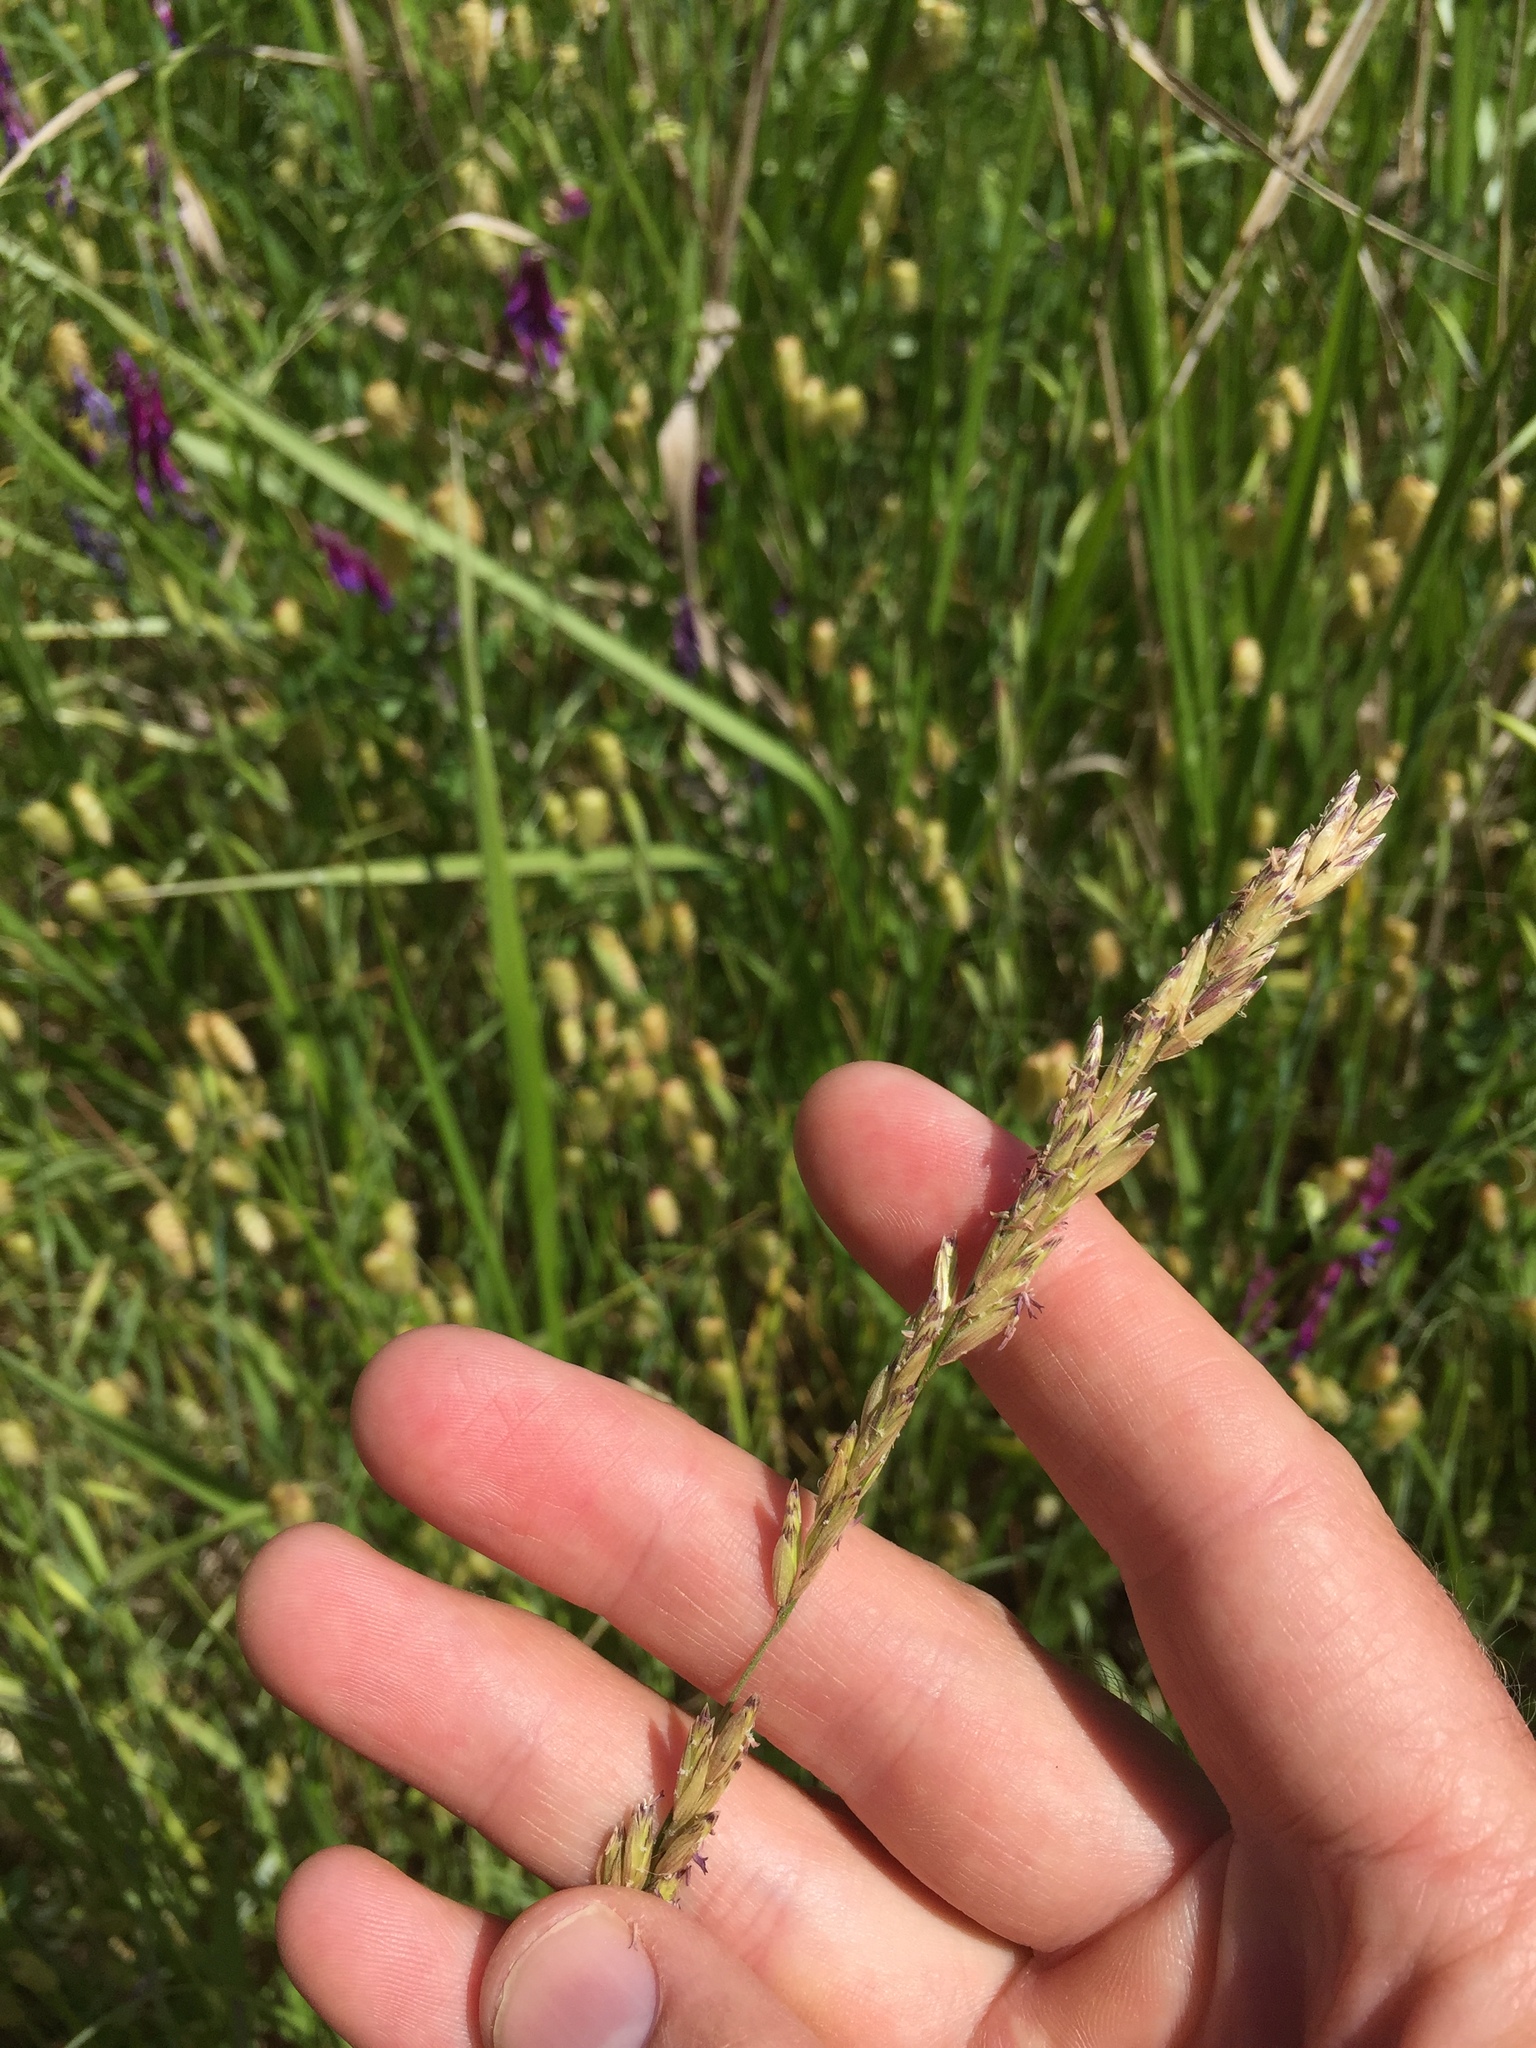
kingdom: Plantae
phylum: Tracheophyta
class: Liliopsida
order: Poales
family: Poaceae
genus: Melica
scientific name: Melica californica
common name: California melic
